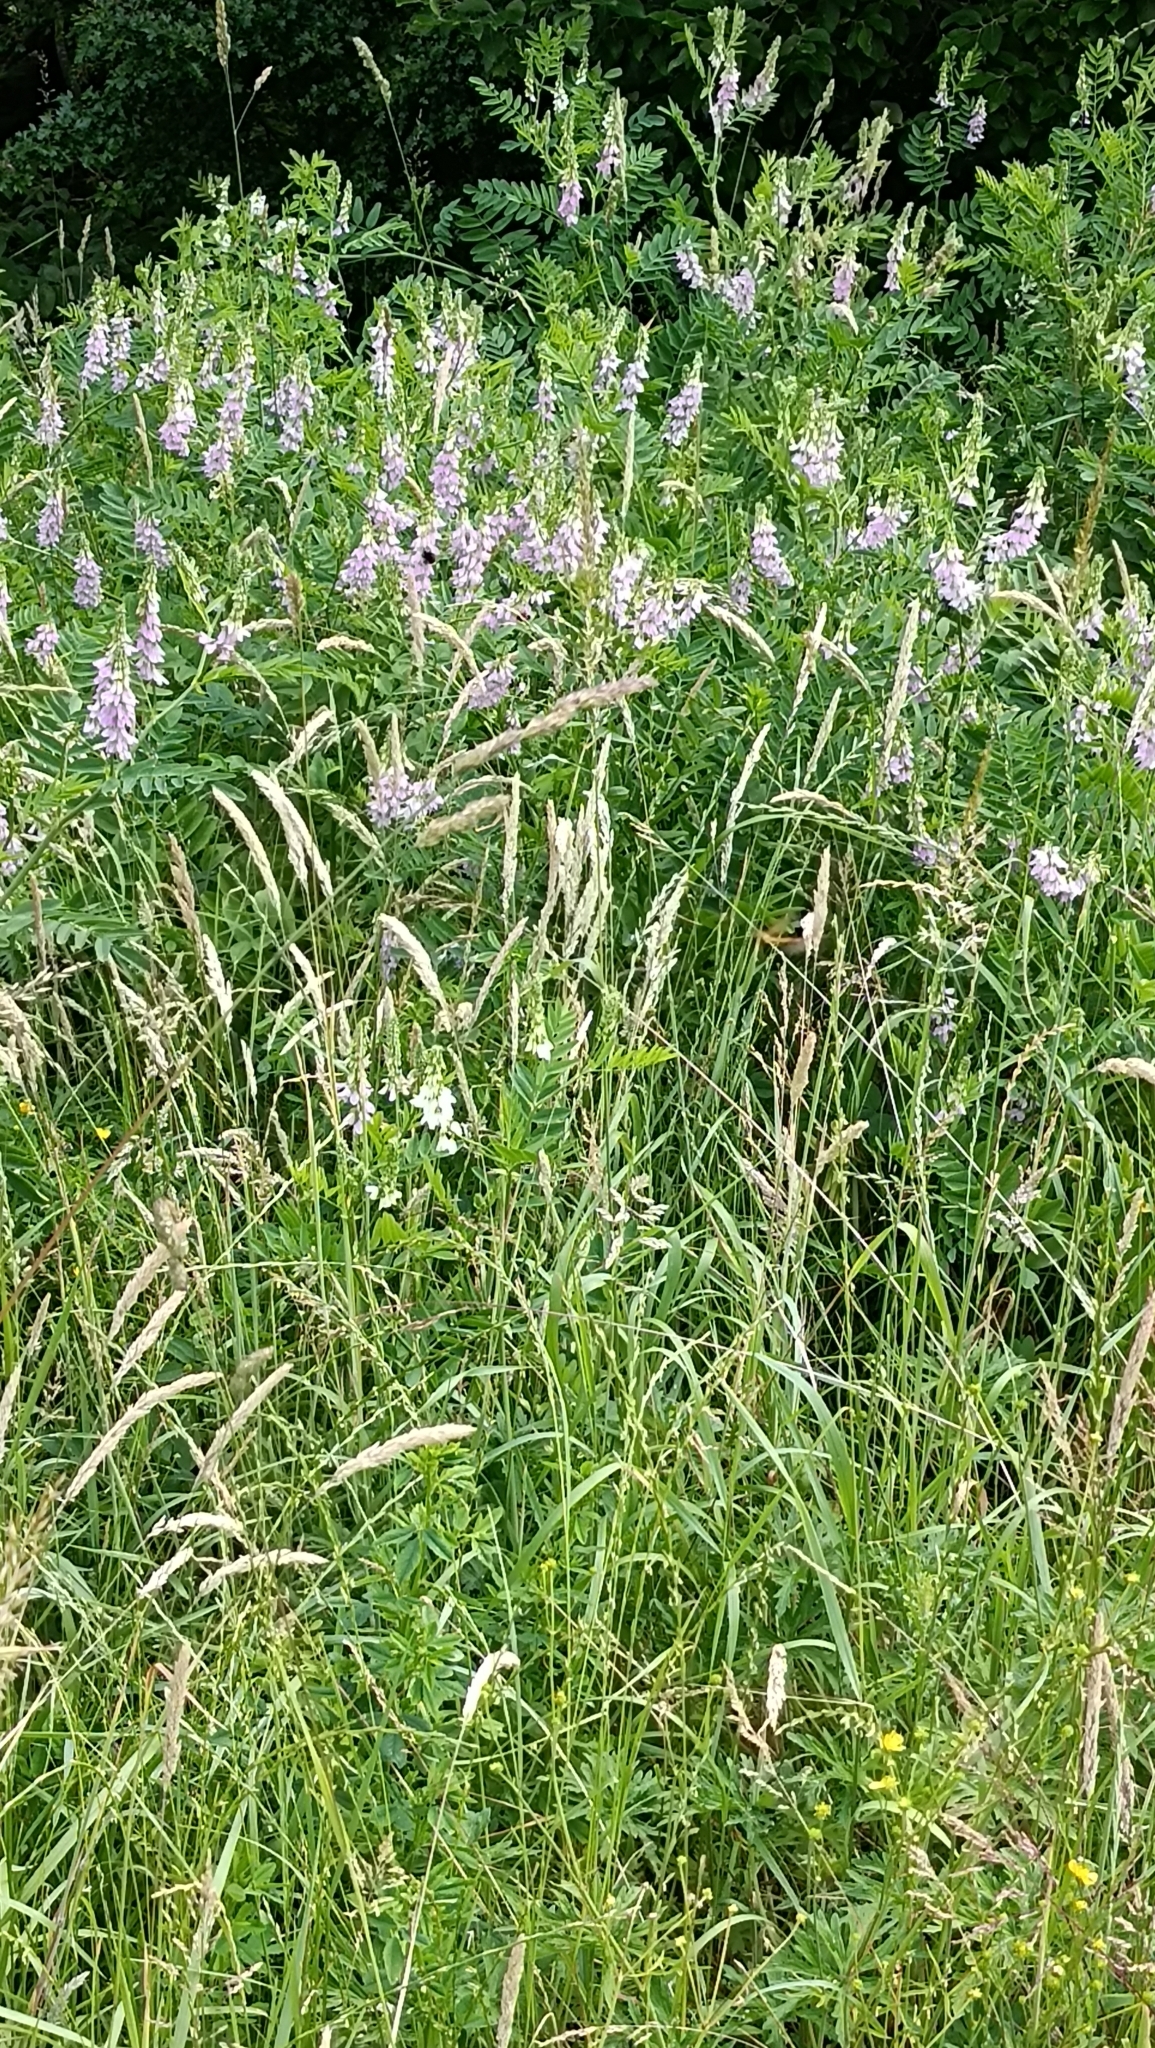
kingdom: Plantae
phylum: Tracheophyta
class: Magnoliopsida
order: Fabales
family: Fabaceae
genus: Galega
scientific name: Galega officinalis
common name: Goat's-rue
